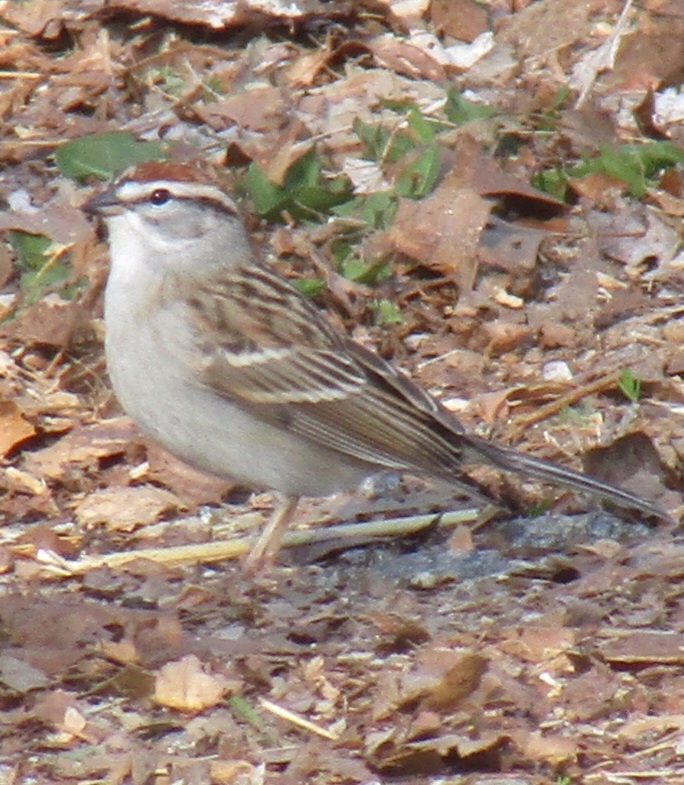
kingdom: Animalia
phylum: Chordata
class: Aves
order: Passeriformes
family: Passerellidae
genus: Spizella
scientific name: Spizella passerina
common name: Chipping sparrow
